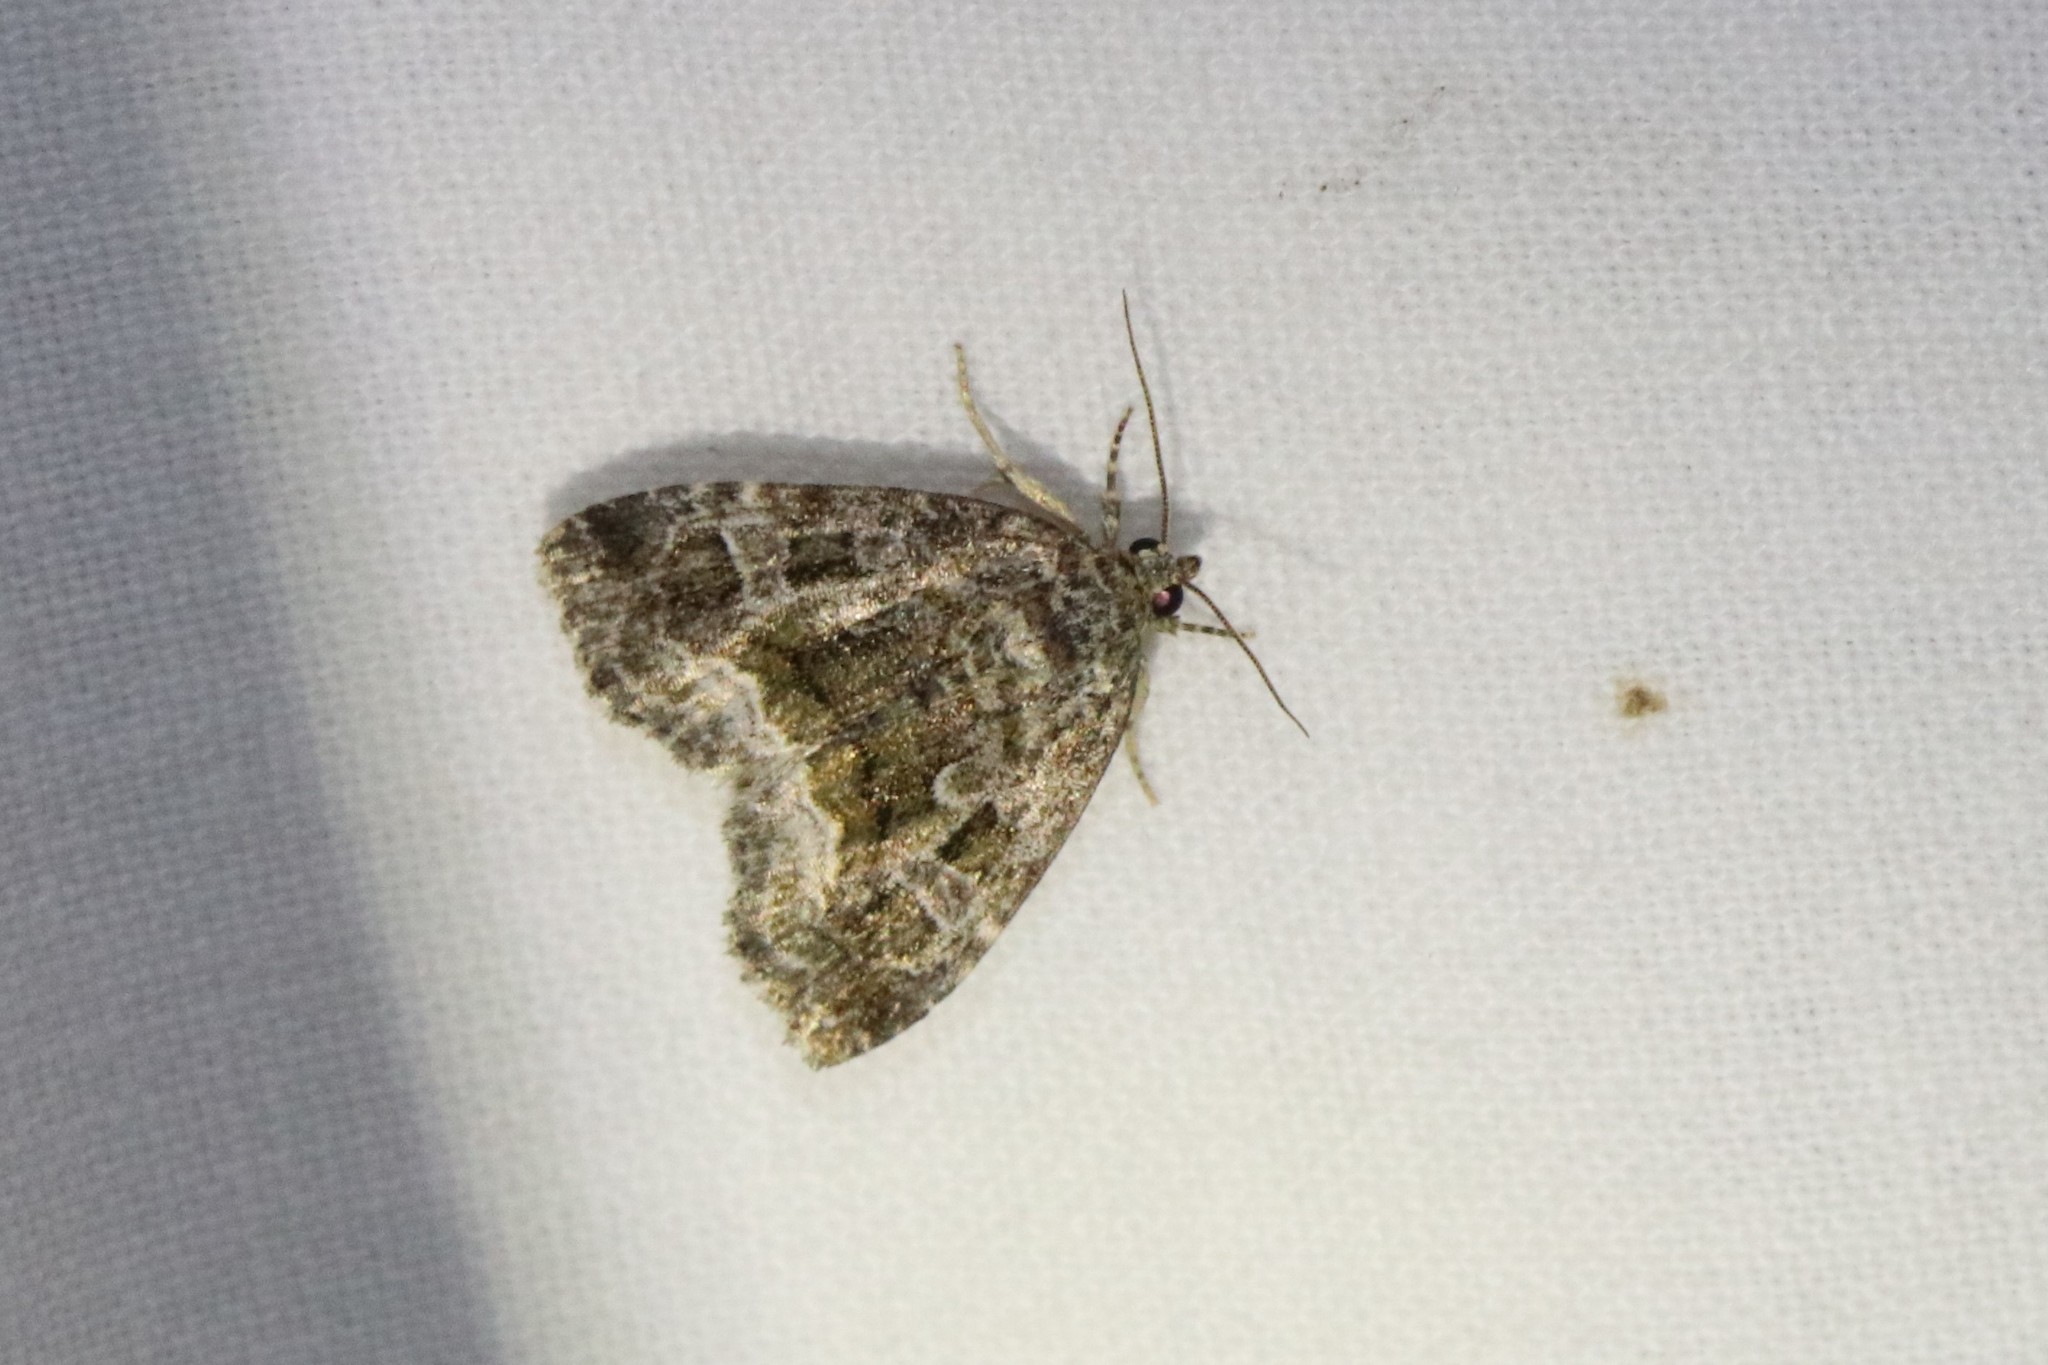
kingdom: Animalia
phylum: Arthropoda
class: Insecta
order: Lepidoptera
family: Noctuidae
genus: Protodeltote
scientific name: Protodeltote muscosula
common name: Large mossy glyph
